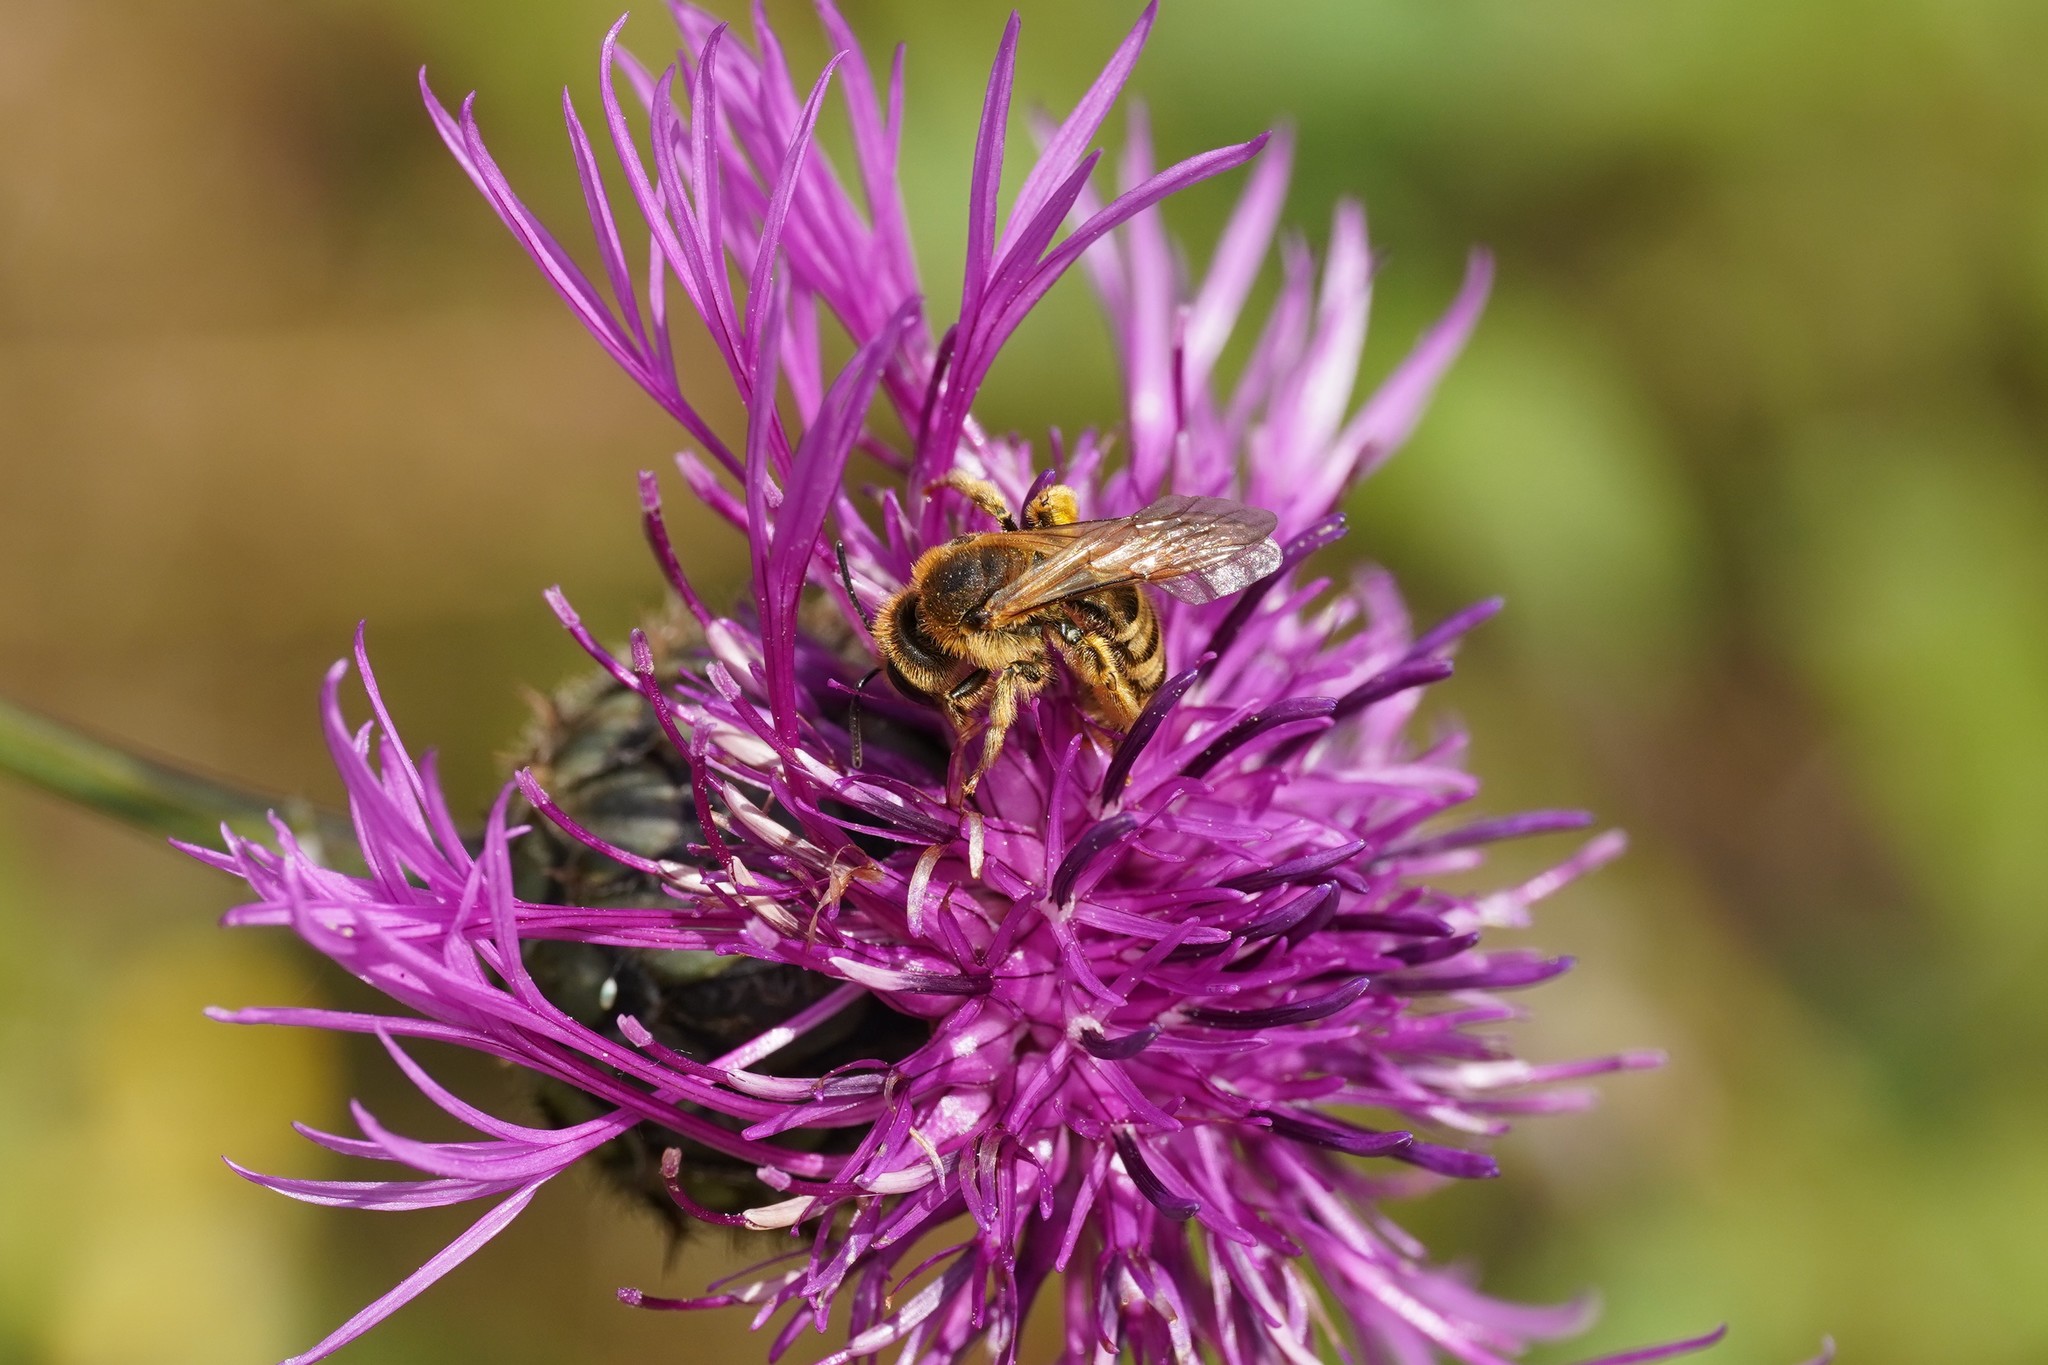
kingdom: Animalia
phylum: Arthropoda
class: Insecta
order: Hymenoptera
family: Halictidae
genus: Halictus
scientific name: Halictus scabiosae
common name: Great banded furrow bee
